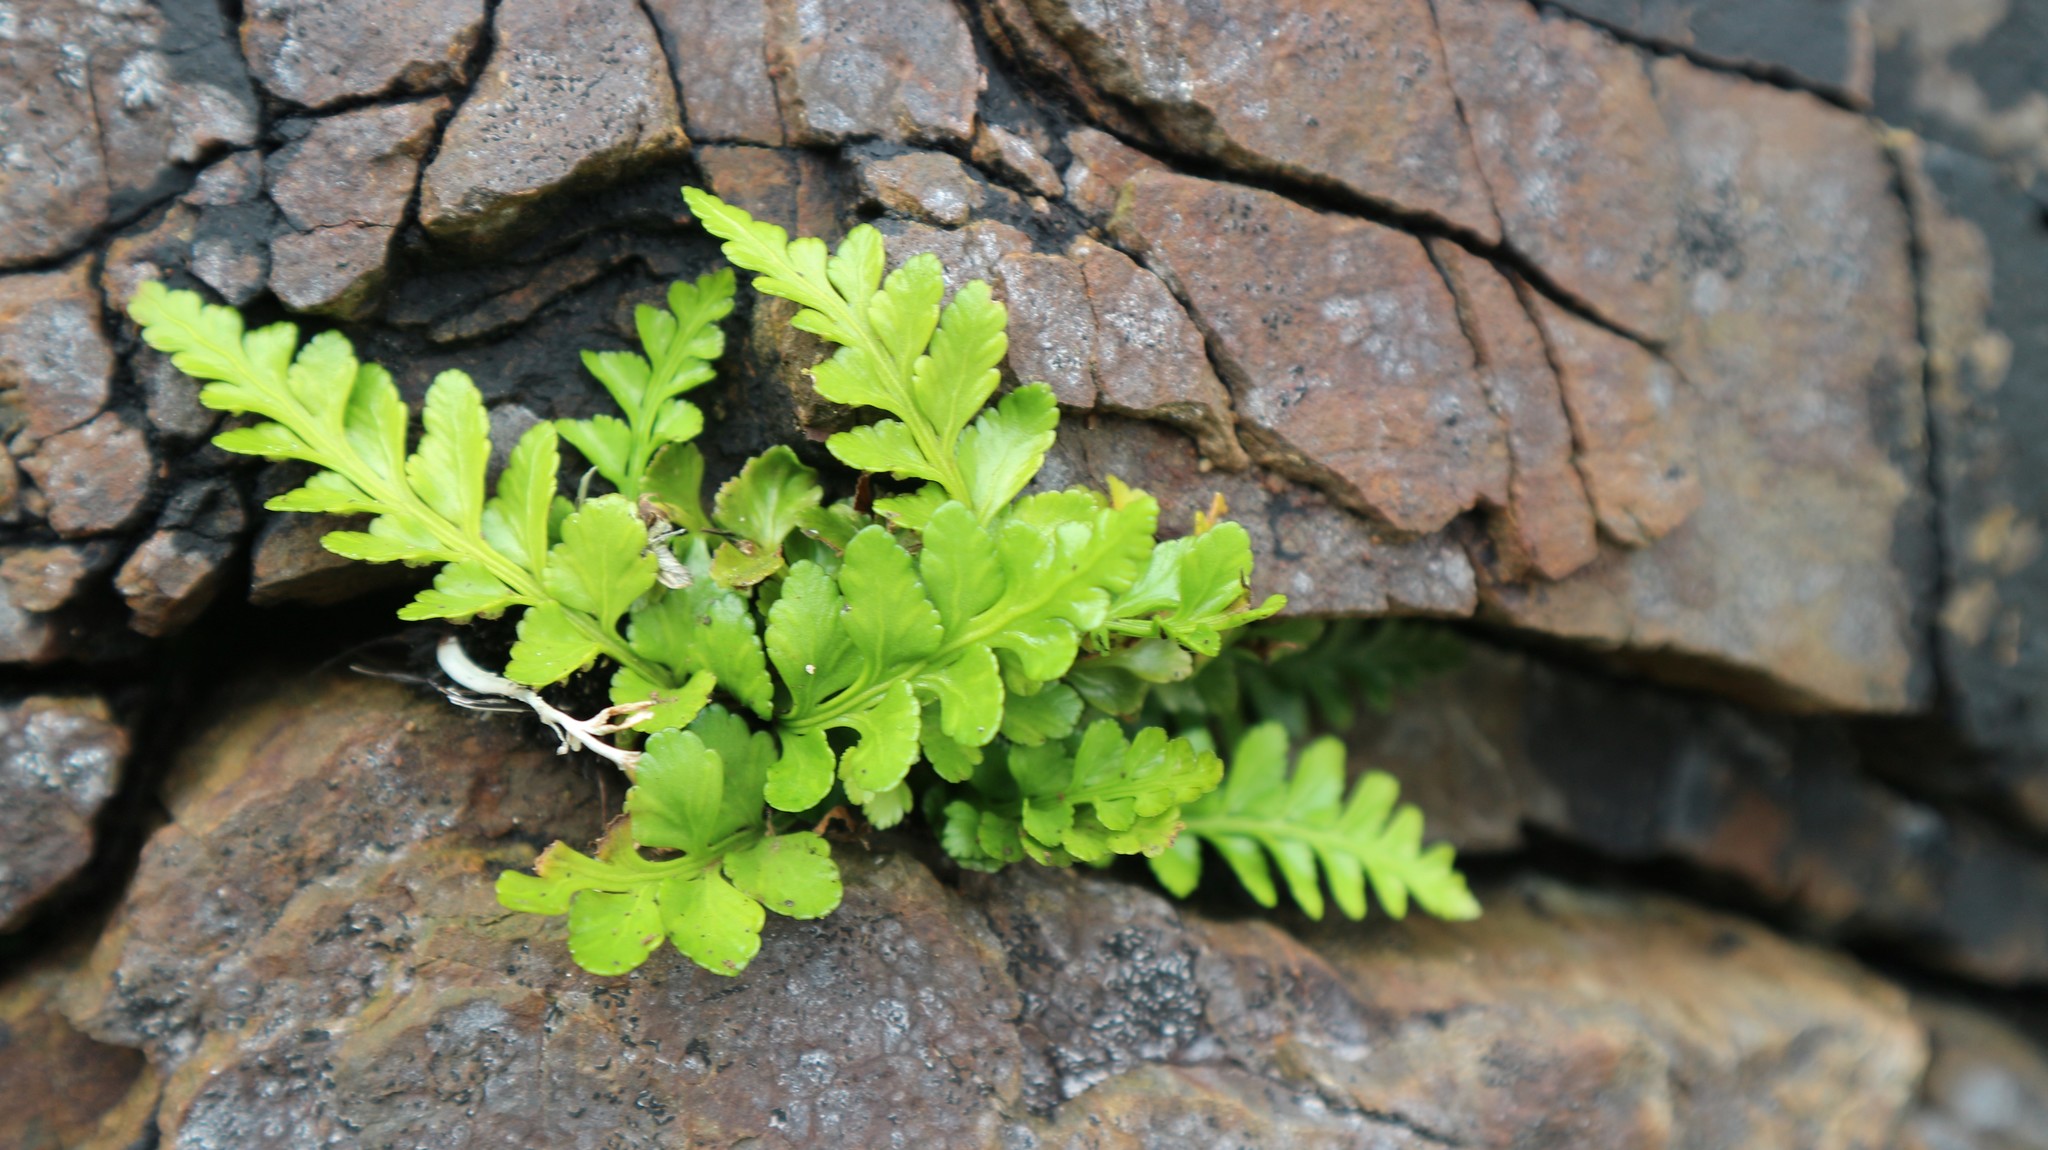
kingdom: Plantae
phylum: Tracheophyta
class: Polypodiopsida
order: Polypodiales
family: Aspleniaceae
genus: Asplenium
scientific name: Asplenium marinum
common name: Sea spleenwort
